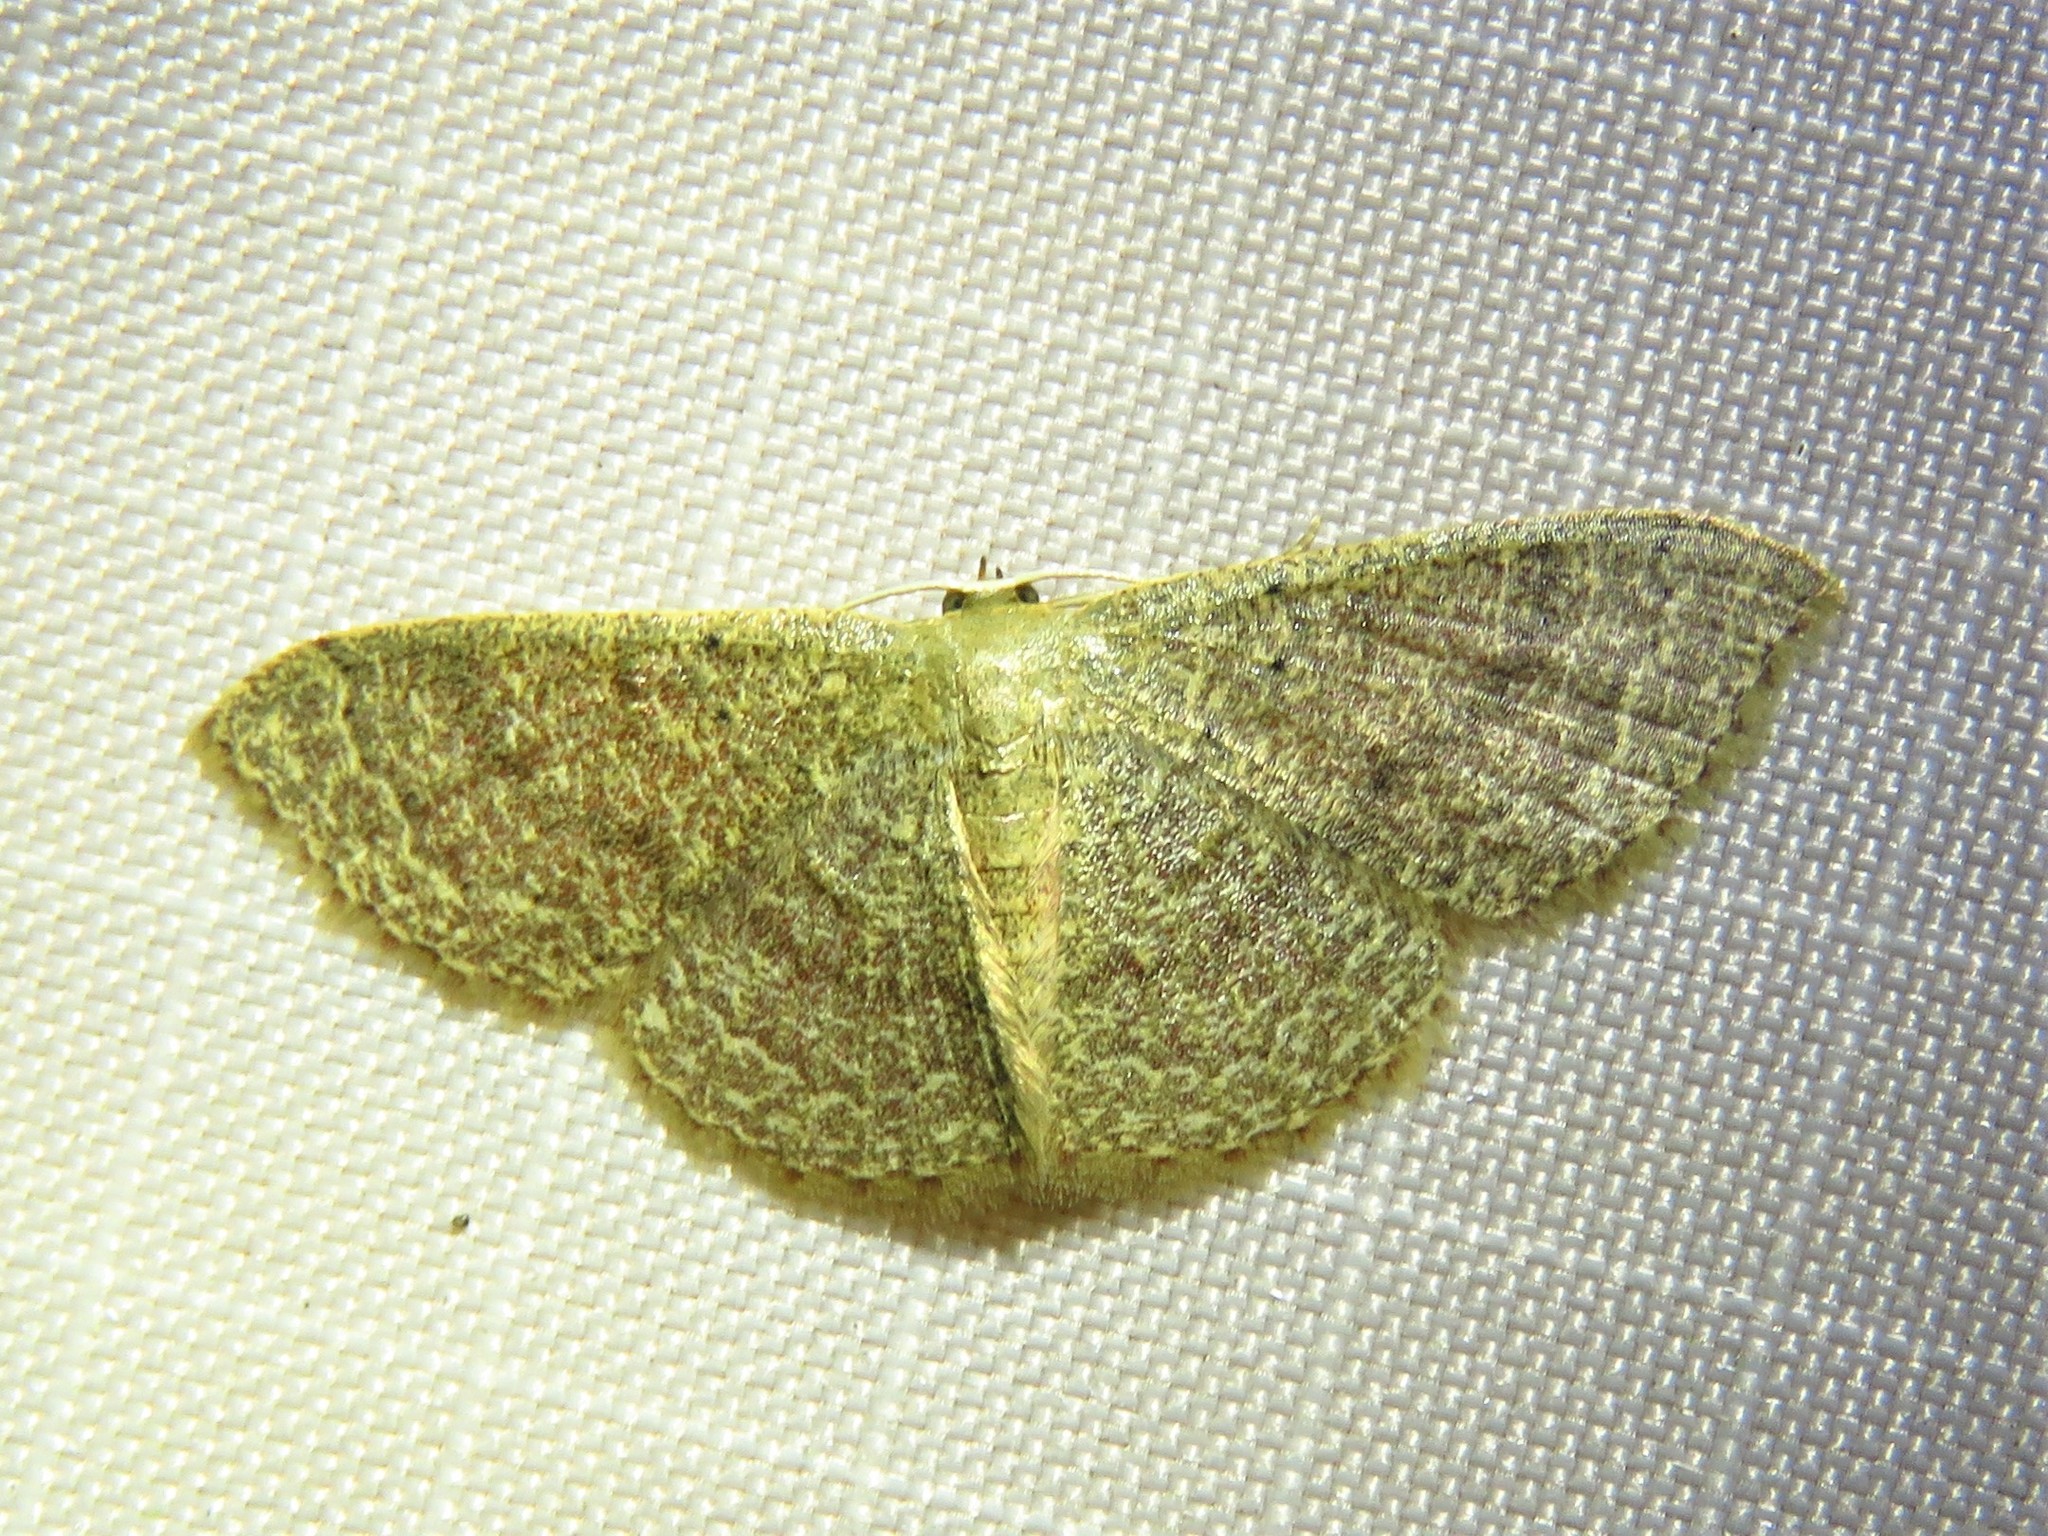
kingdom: Animalia
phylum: Arthropoda
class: Insecta
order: Lepidoptera
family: Geometridae
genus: Pleuroprucha
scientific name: Pleuroprucha insulsaria
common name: Common tan wave
